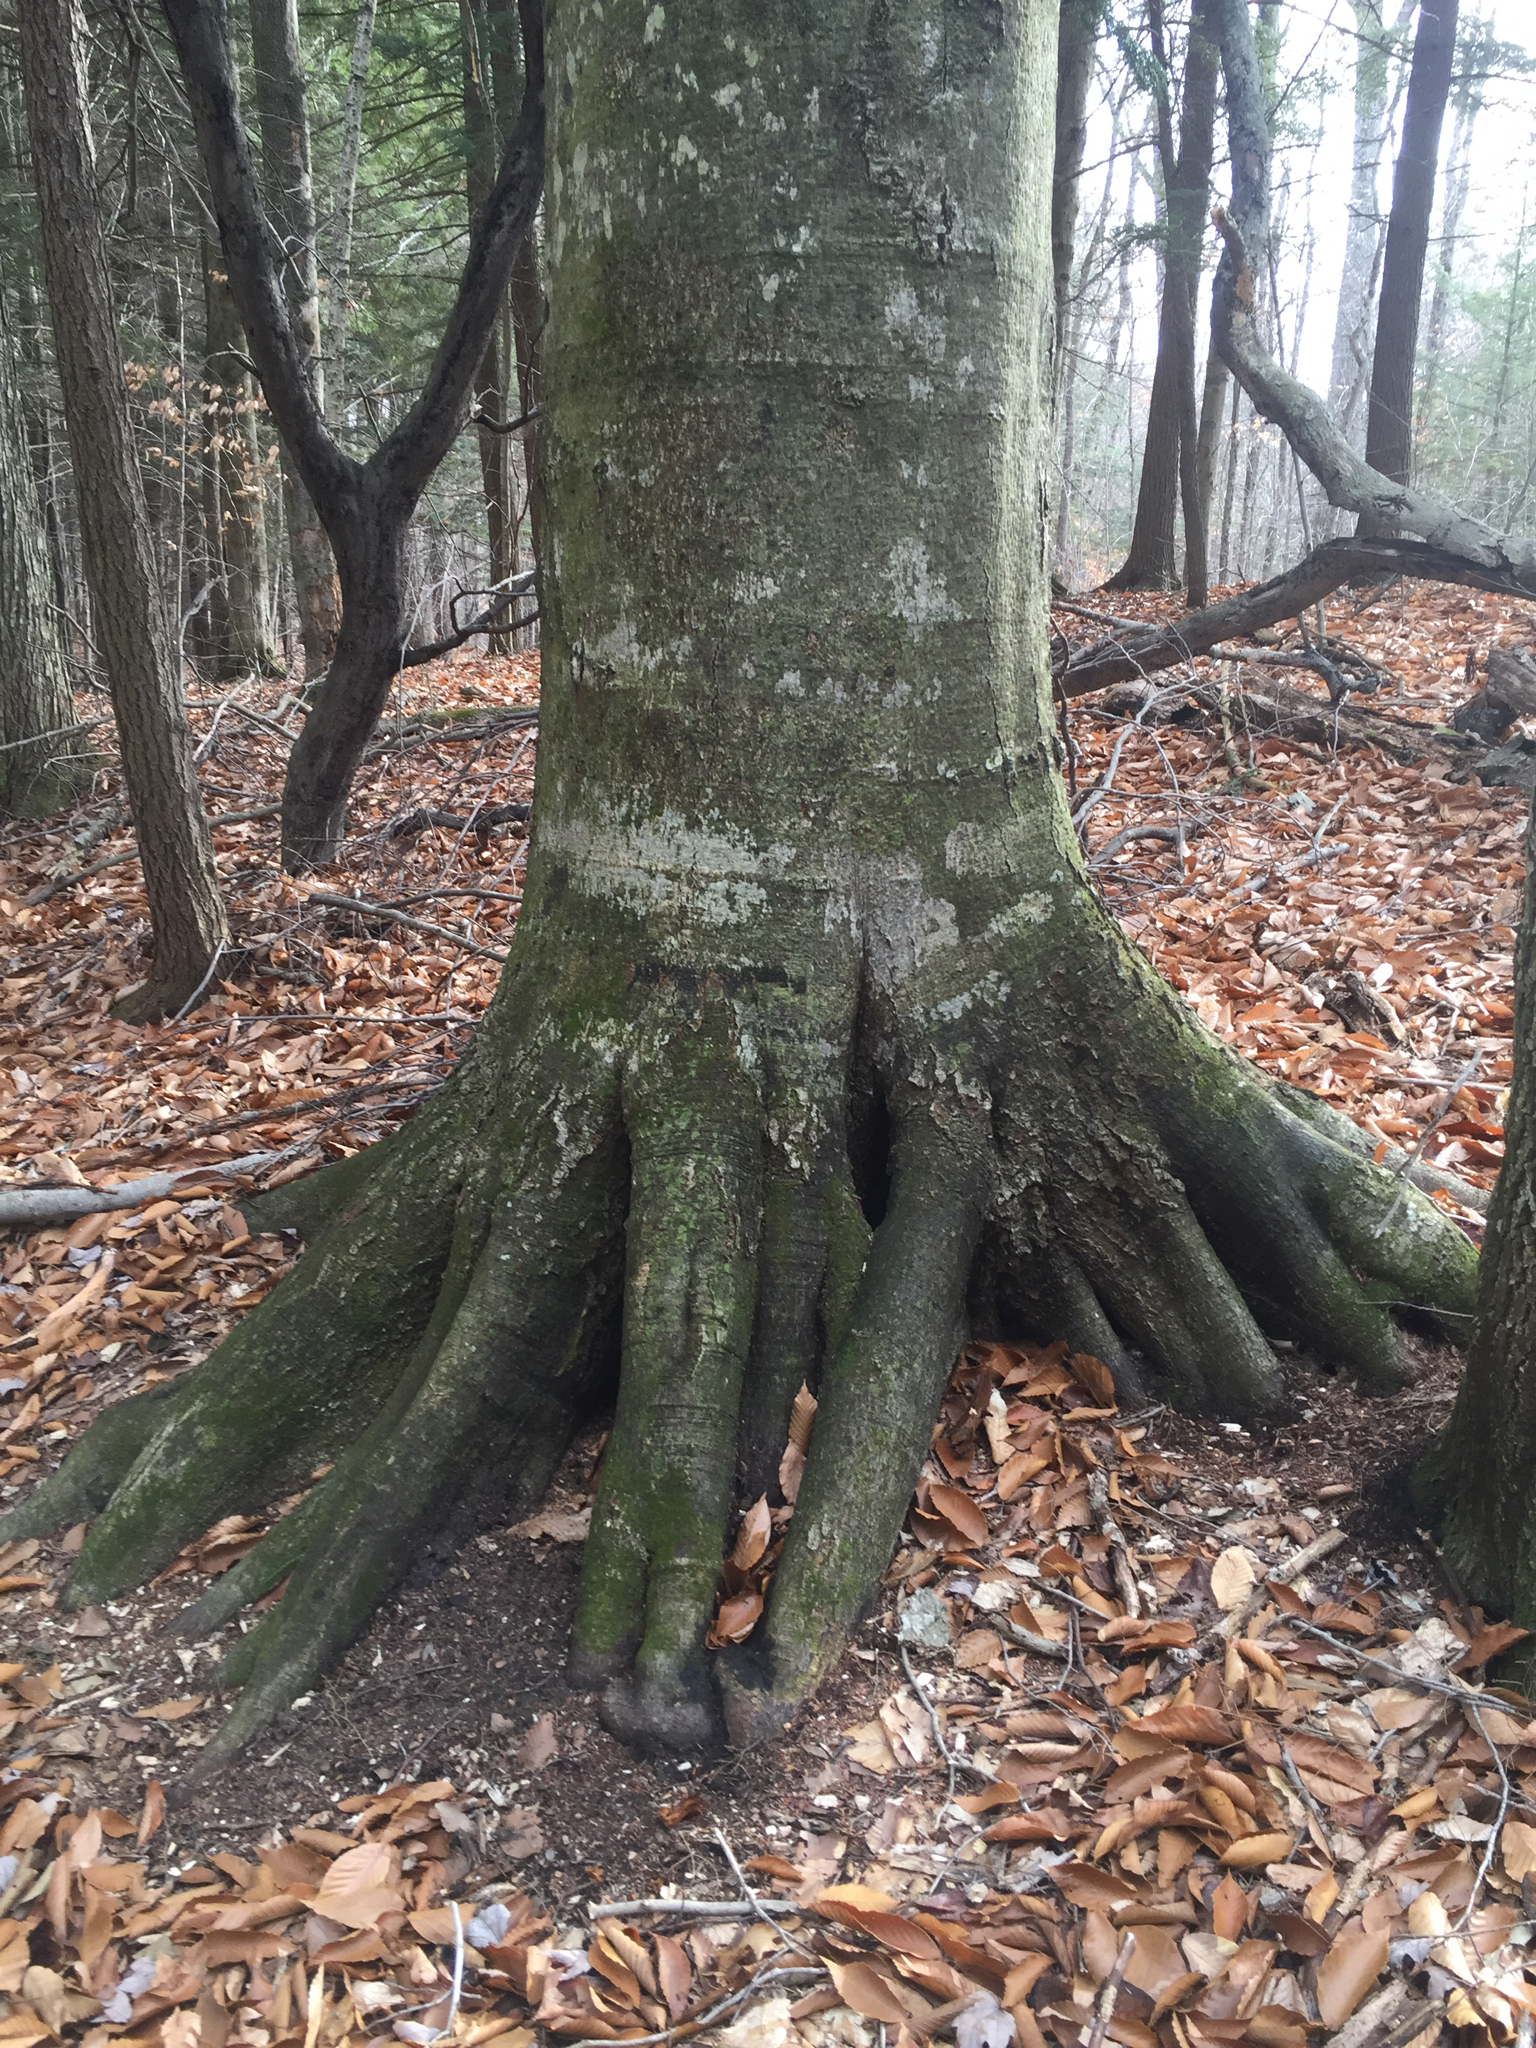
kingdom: Plantae
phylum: Tracheophyta
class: Magnoliopsida
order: Fagales
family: Fagaceae
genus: Fagus
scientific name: Fagus grandifolia
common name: American beech
